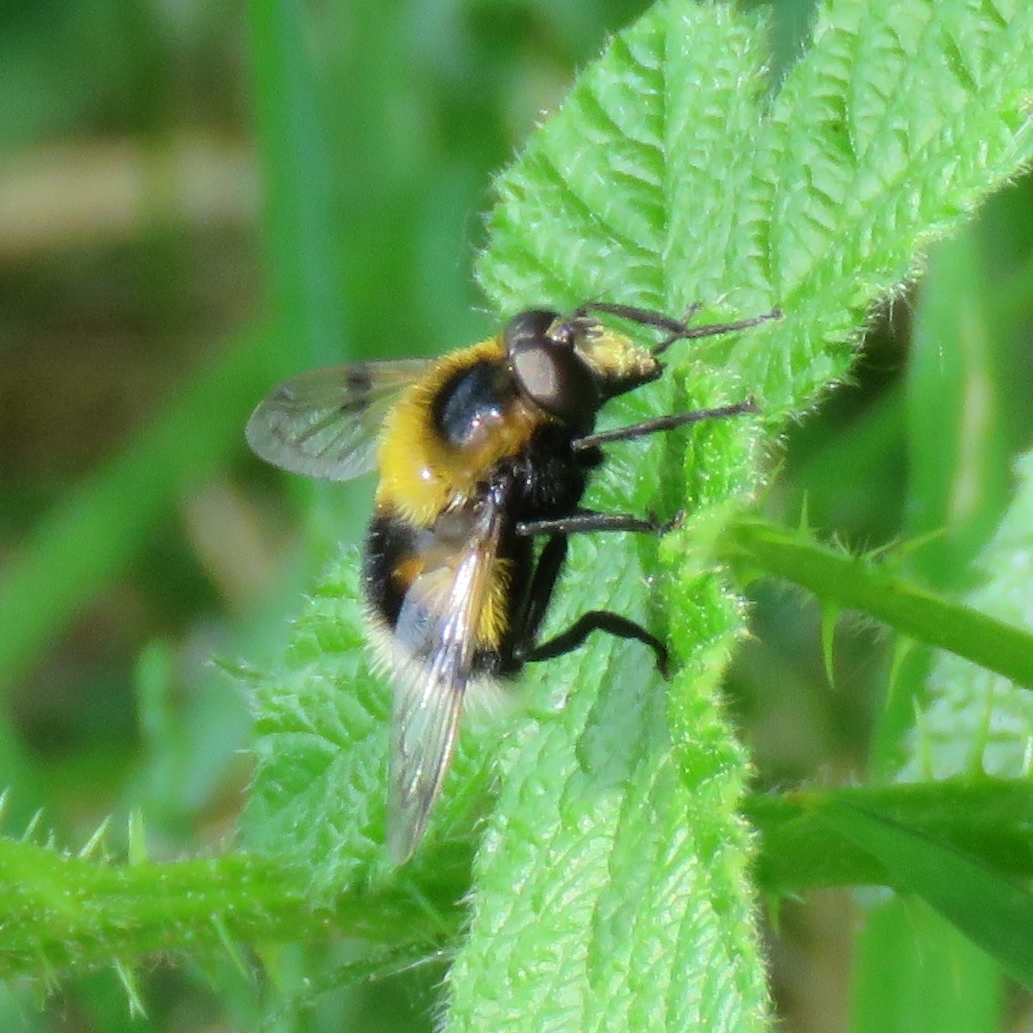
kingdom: Animalia
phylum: Arthropoda
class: Insecta
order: Diptera
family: Syrphidae
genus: Volucella
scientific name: Volucella bombylans
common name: Bumble bee hover fly
